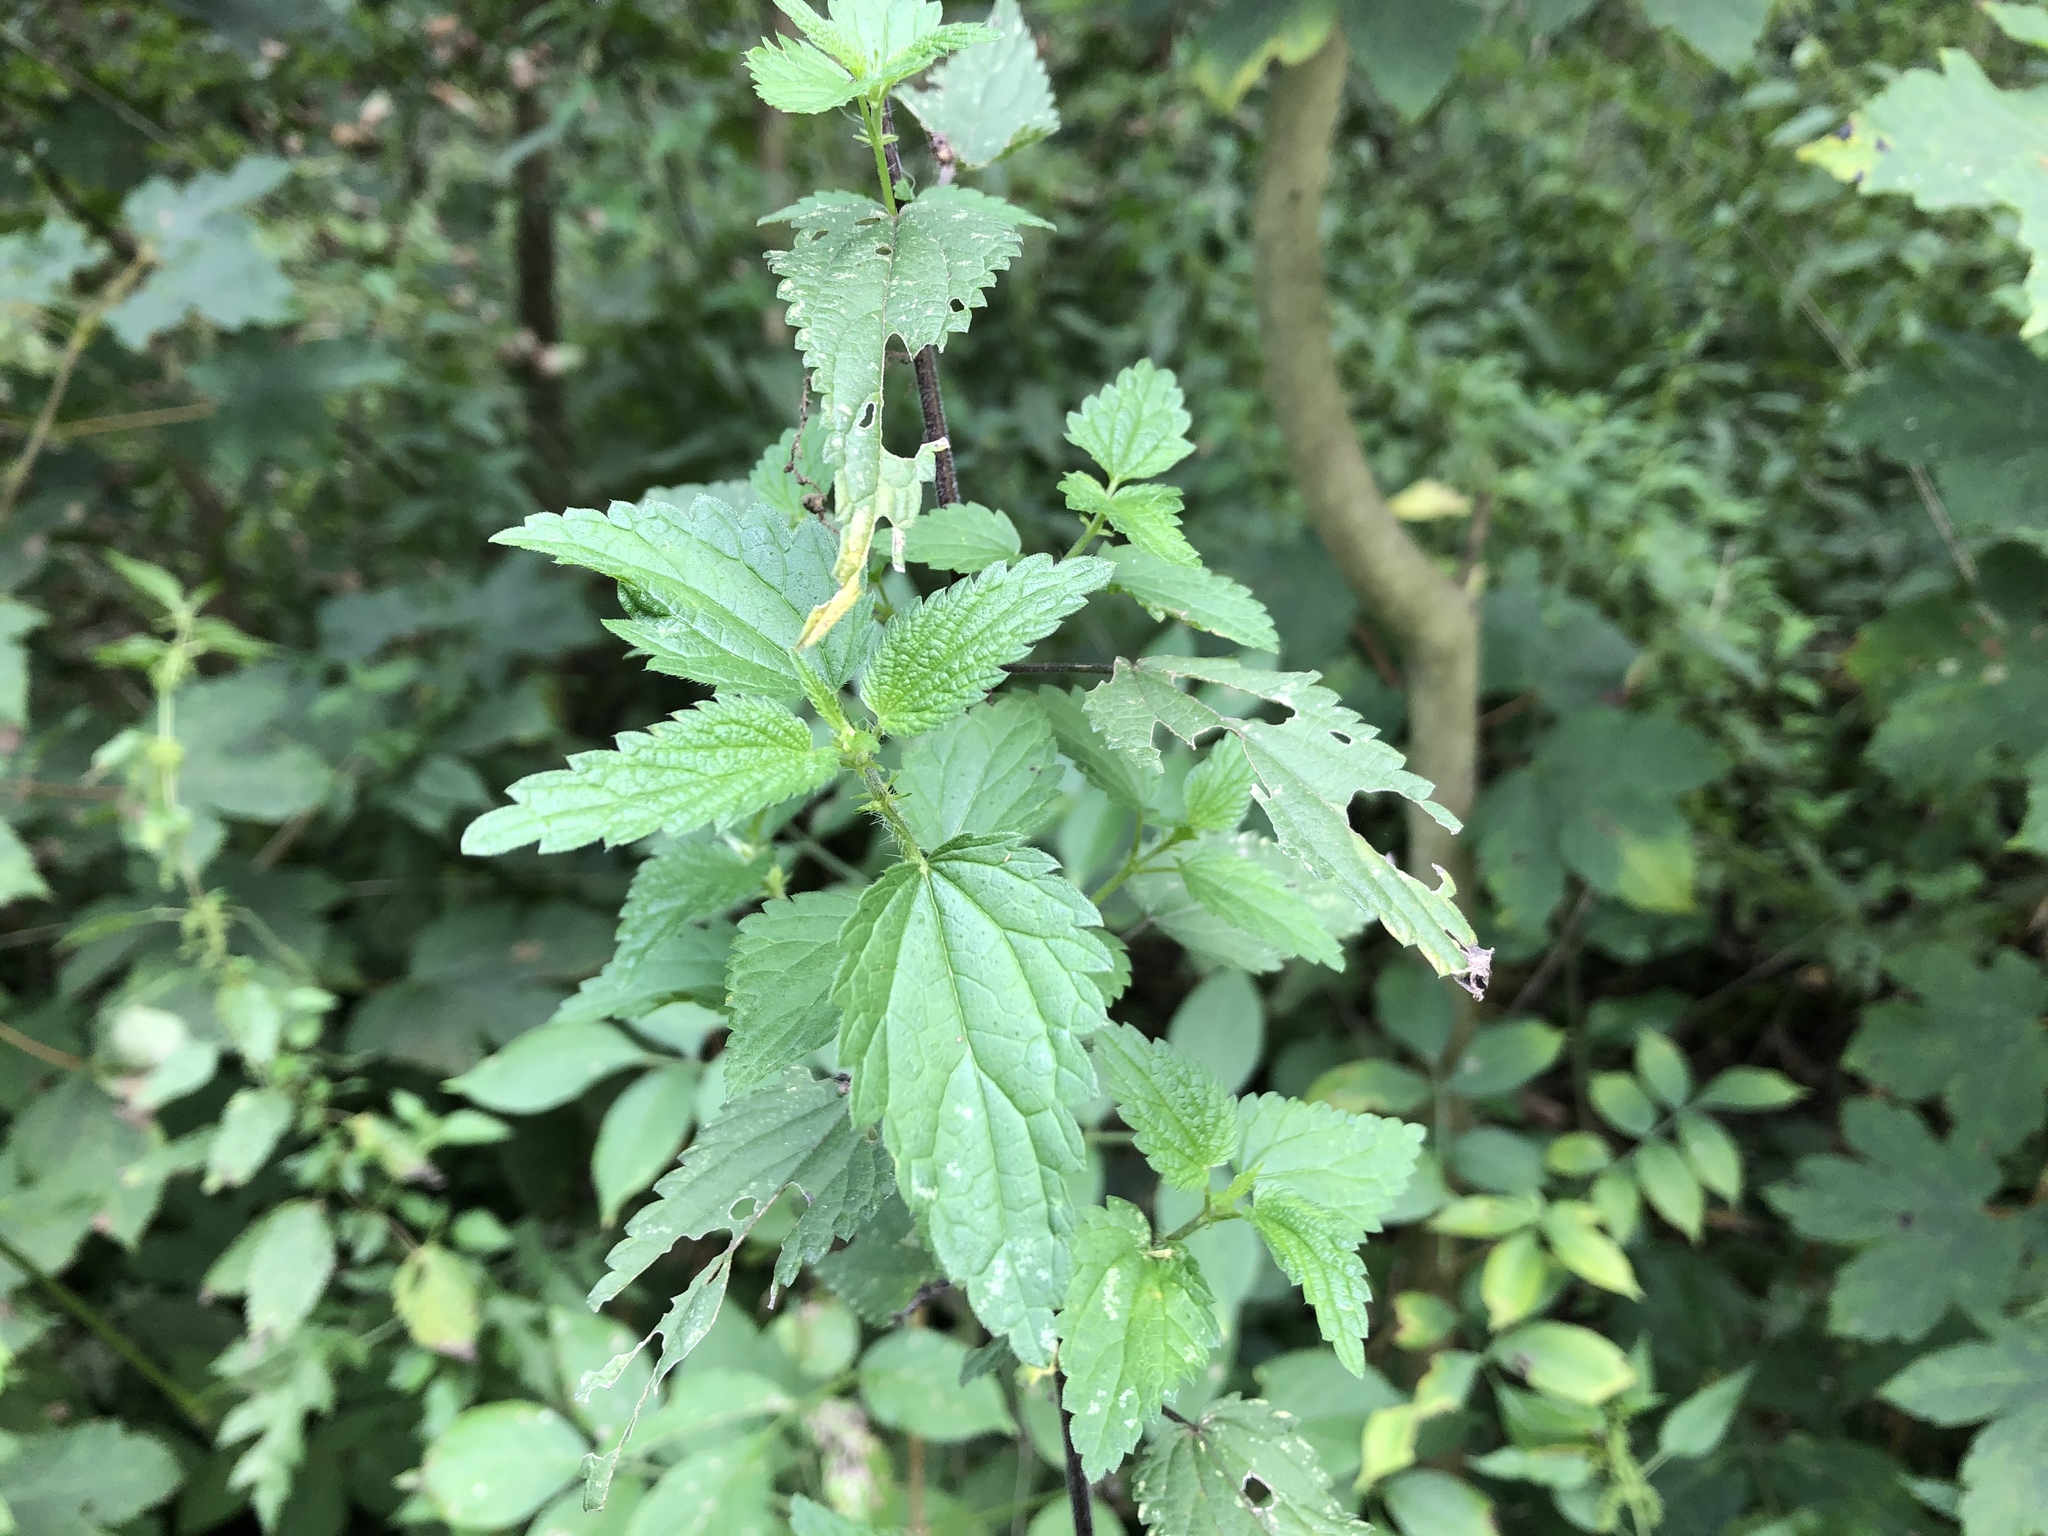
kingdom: Plantae
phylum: Tracheophyta
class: Magnoliopsida
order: Rosales
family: Urticaceae
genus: Urtica
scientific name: Urtica dioica
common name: Common nettle
